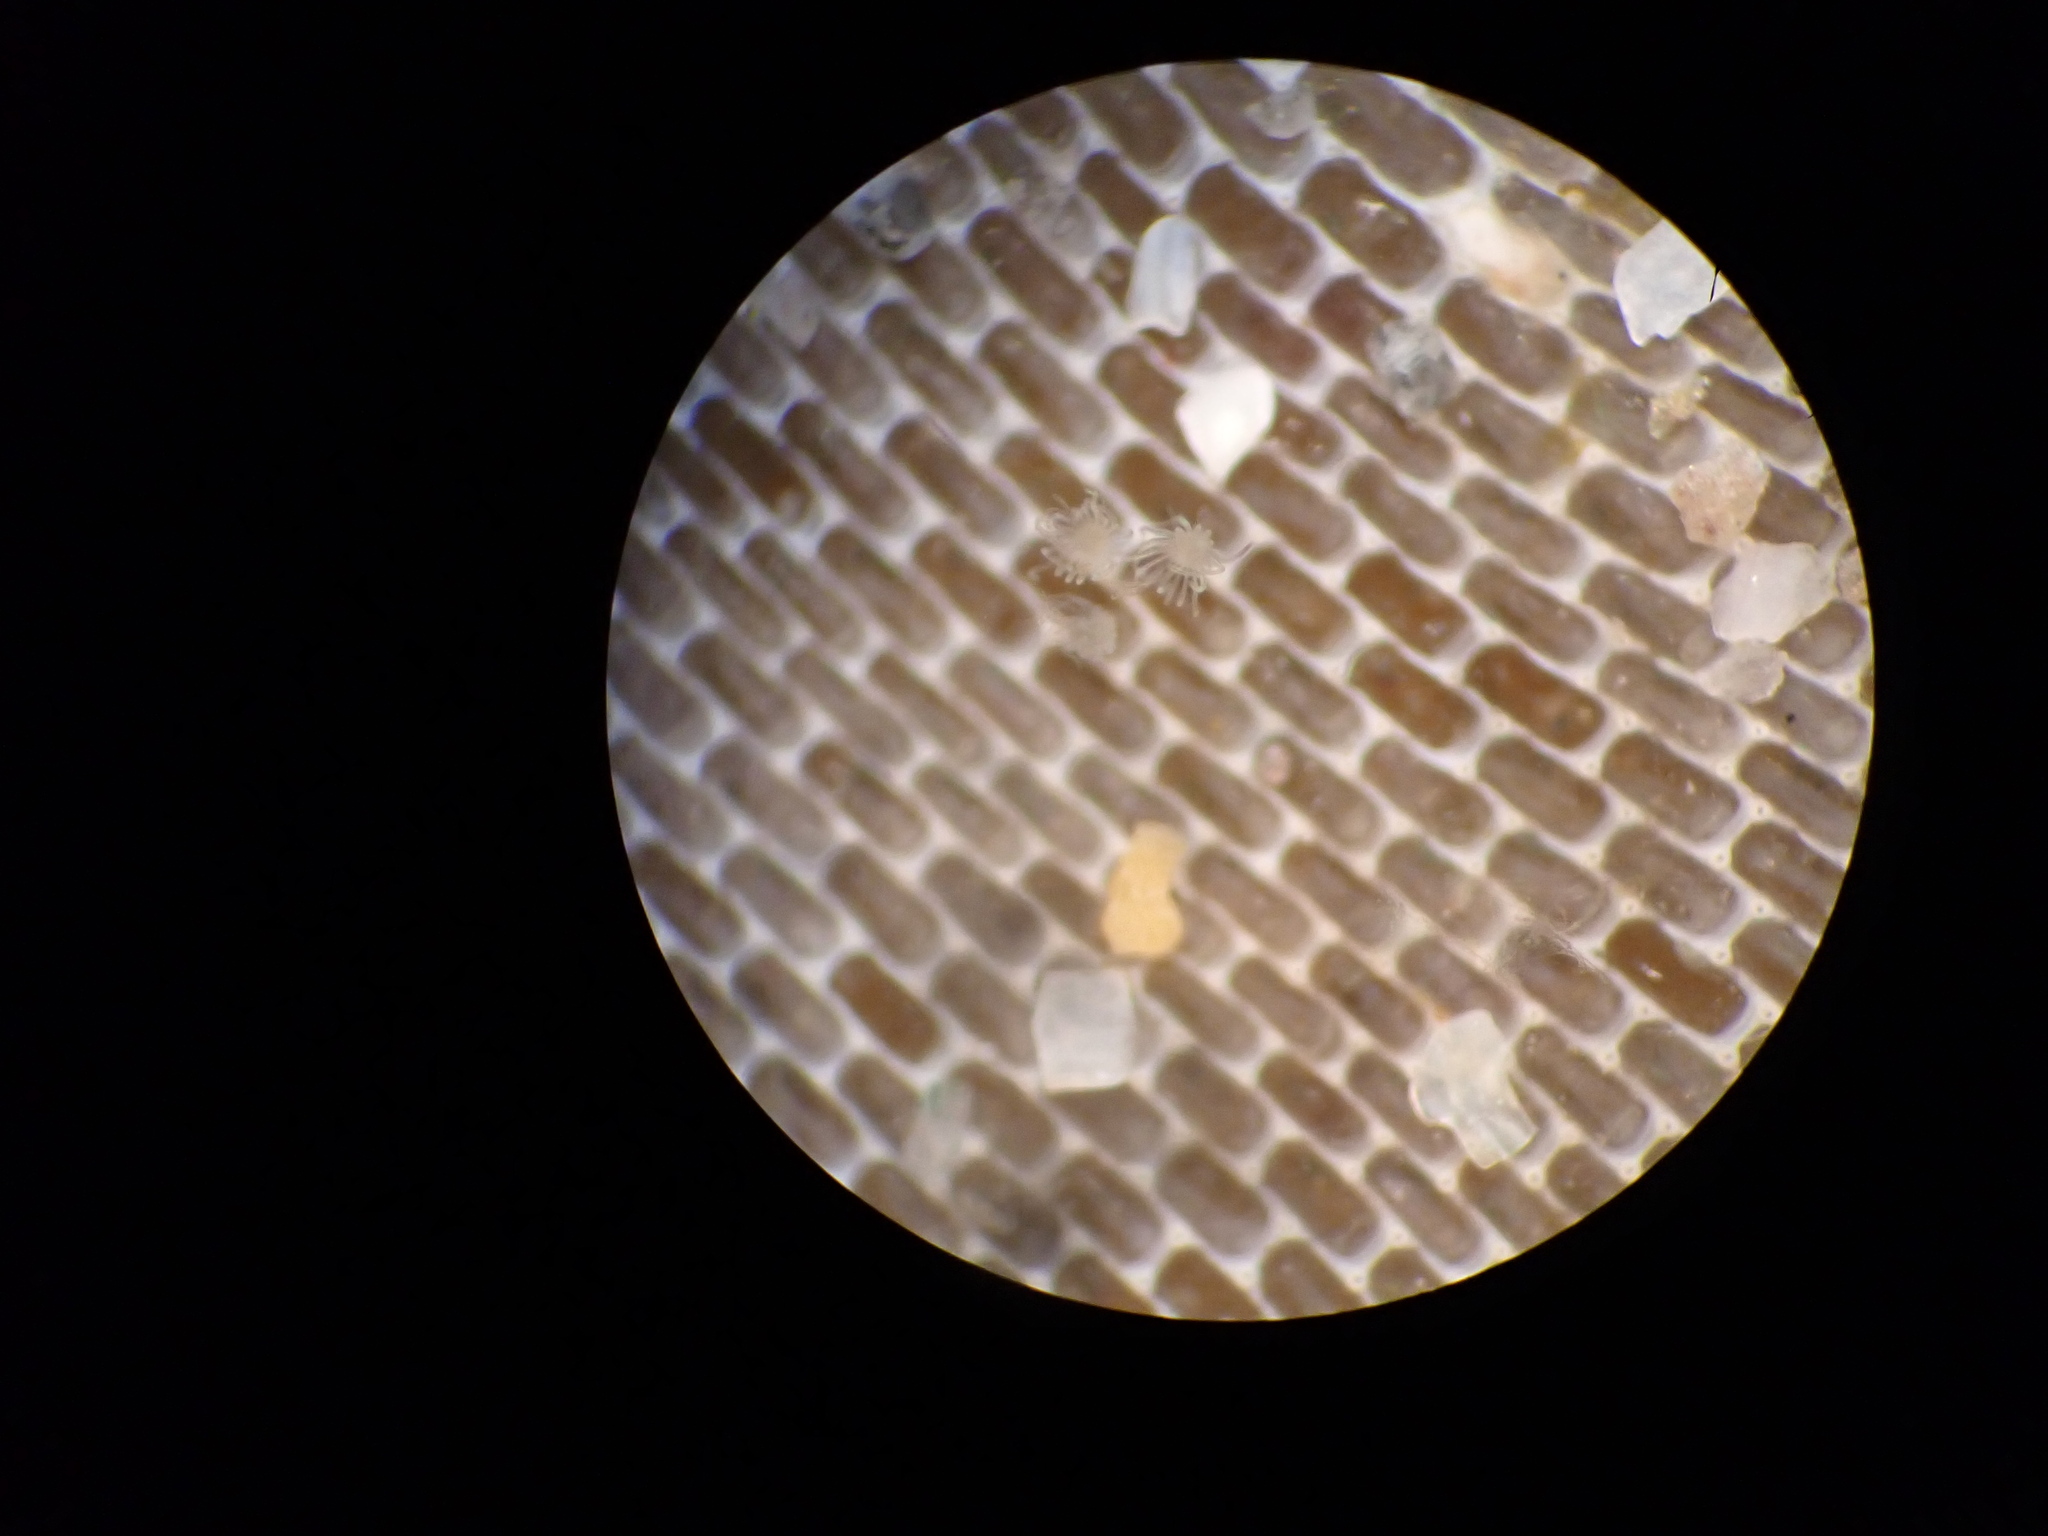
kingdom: Animalia
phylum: Bryozoa
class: Gymnolaemata
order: Cheilostomatida
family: Membraniporidae
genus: Membranipora
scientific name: Membranipora membranacea
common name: Sea mat
